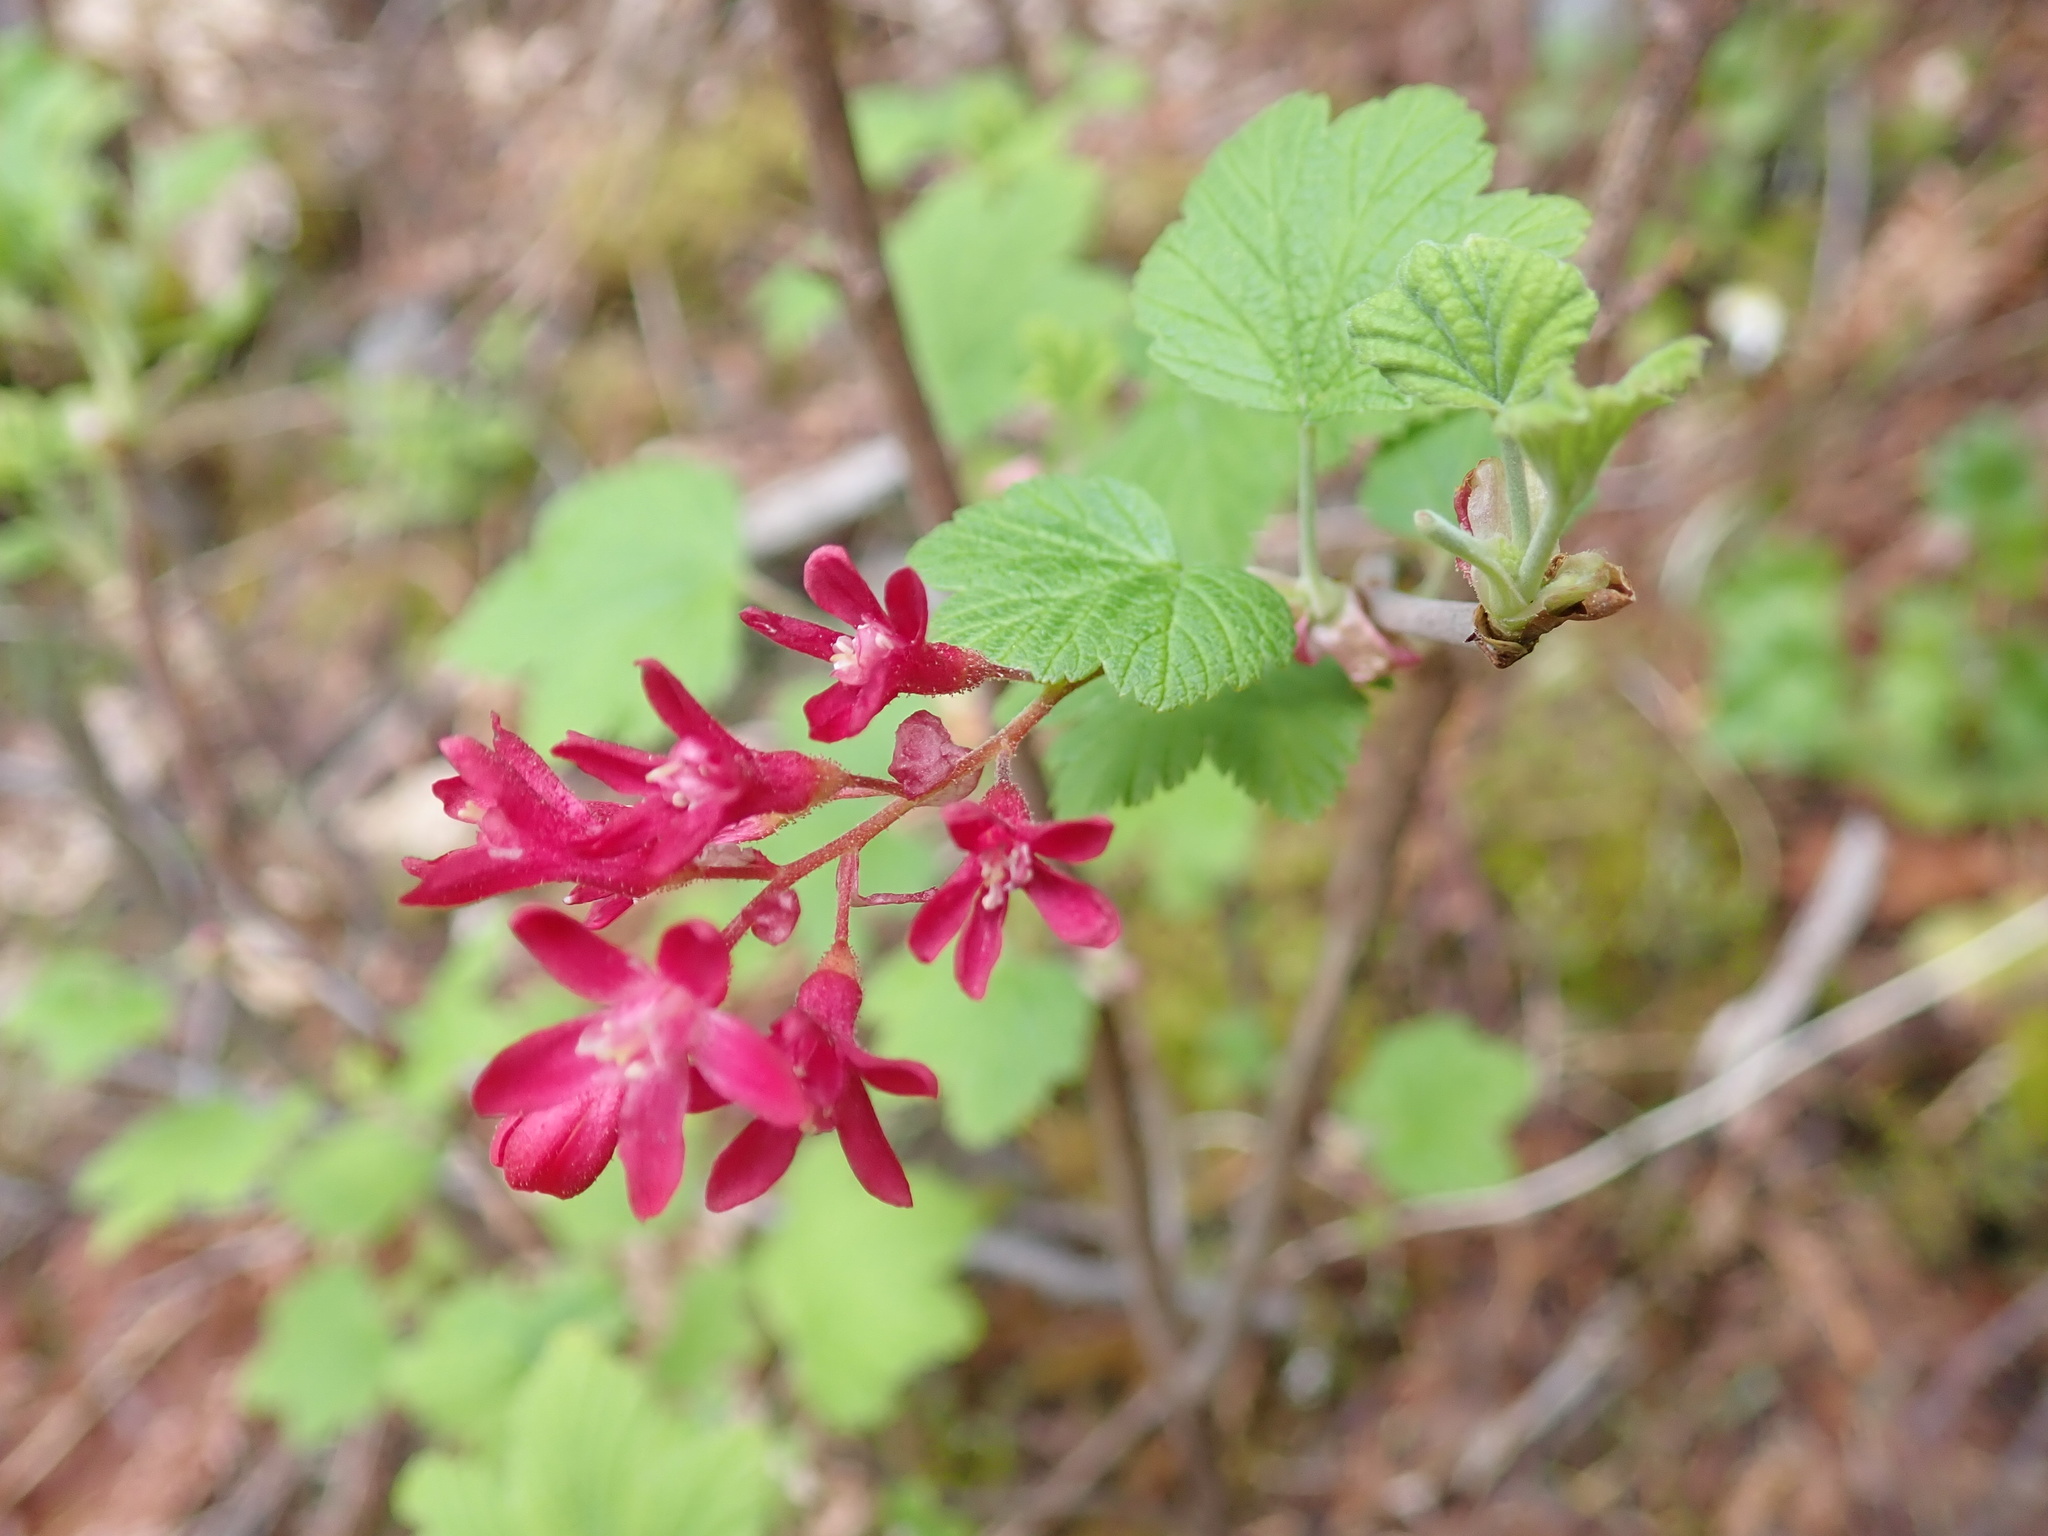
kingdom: Plantae
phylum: Tracheophyta
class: Magnoliopsida
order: Saxifragales
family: Grossulariaceae
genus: Ribes
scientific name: Ribes sanguineum
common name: Flowering currant
